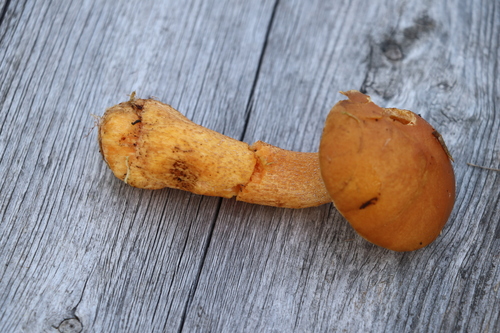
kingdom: Fungi
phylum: Basidiomycota
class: Agaricomycetes
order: Boletales
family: Suillaceae
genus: Suillus
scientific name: Suillus variegatus
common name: Velvet bolete
